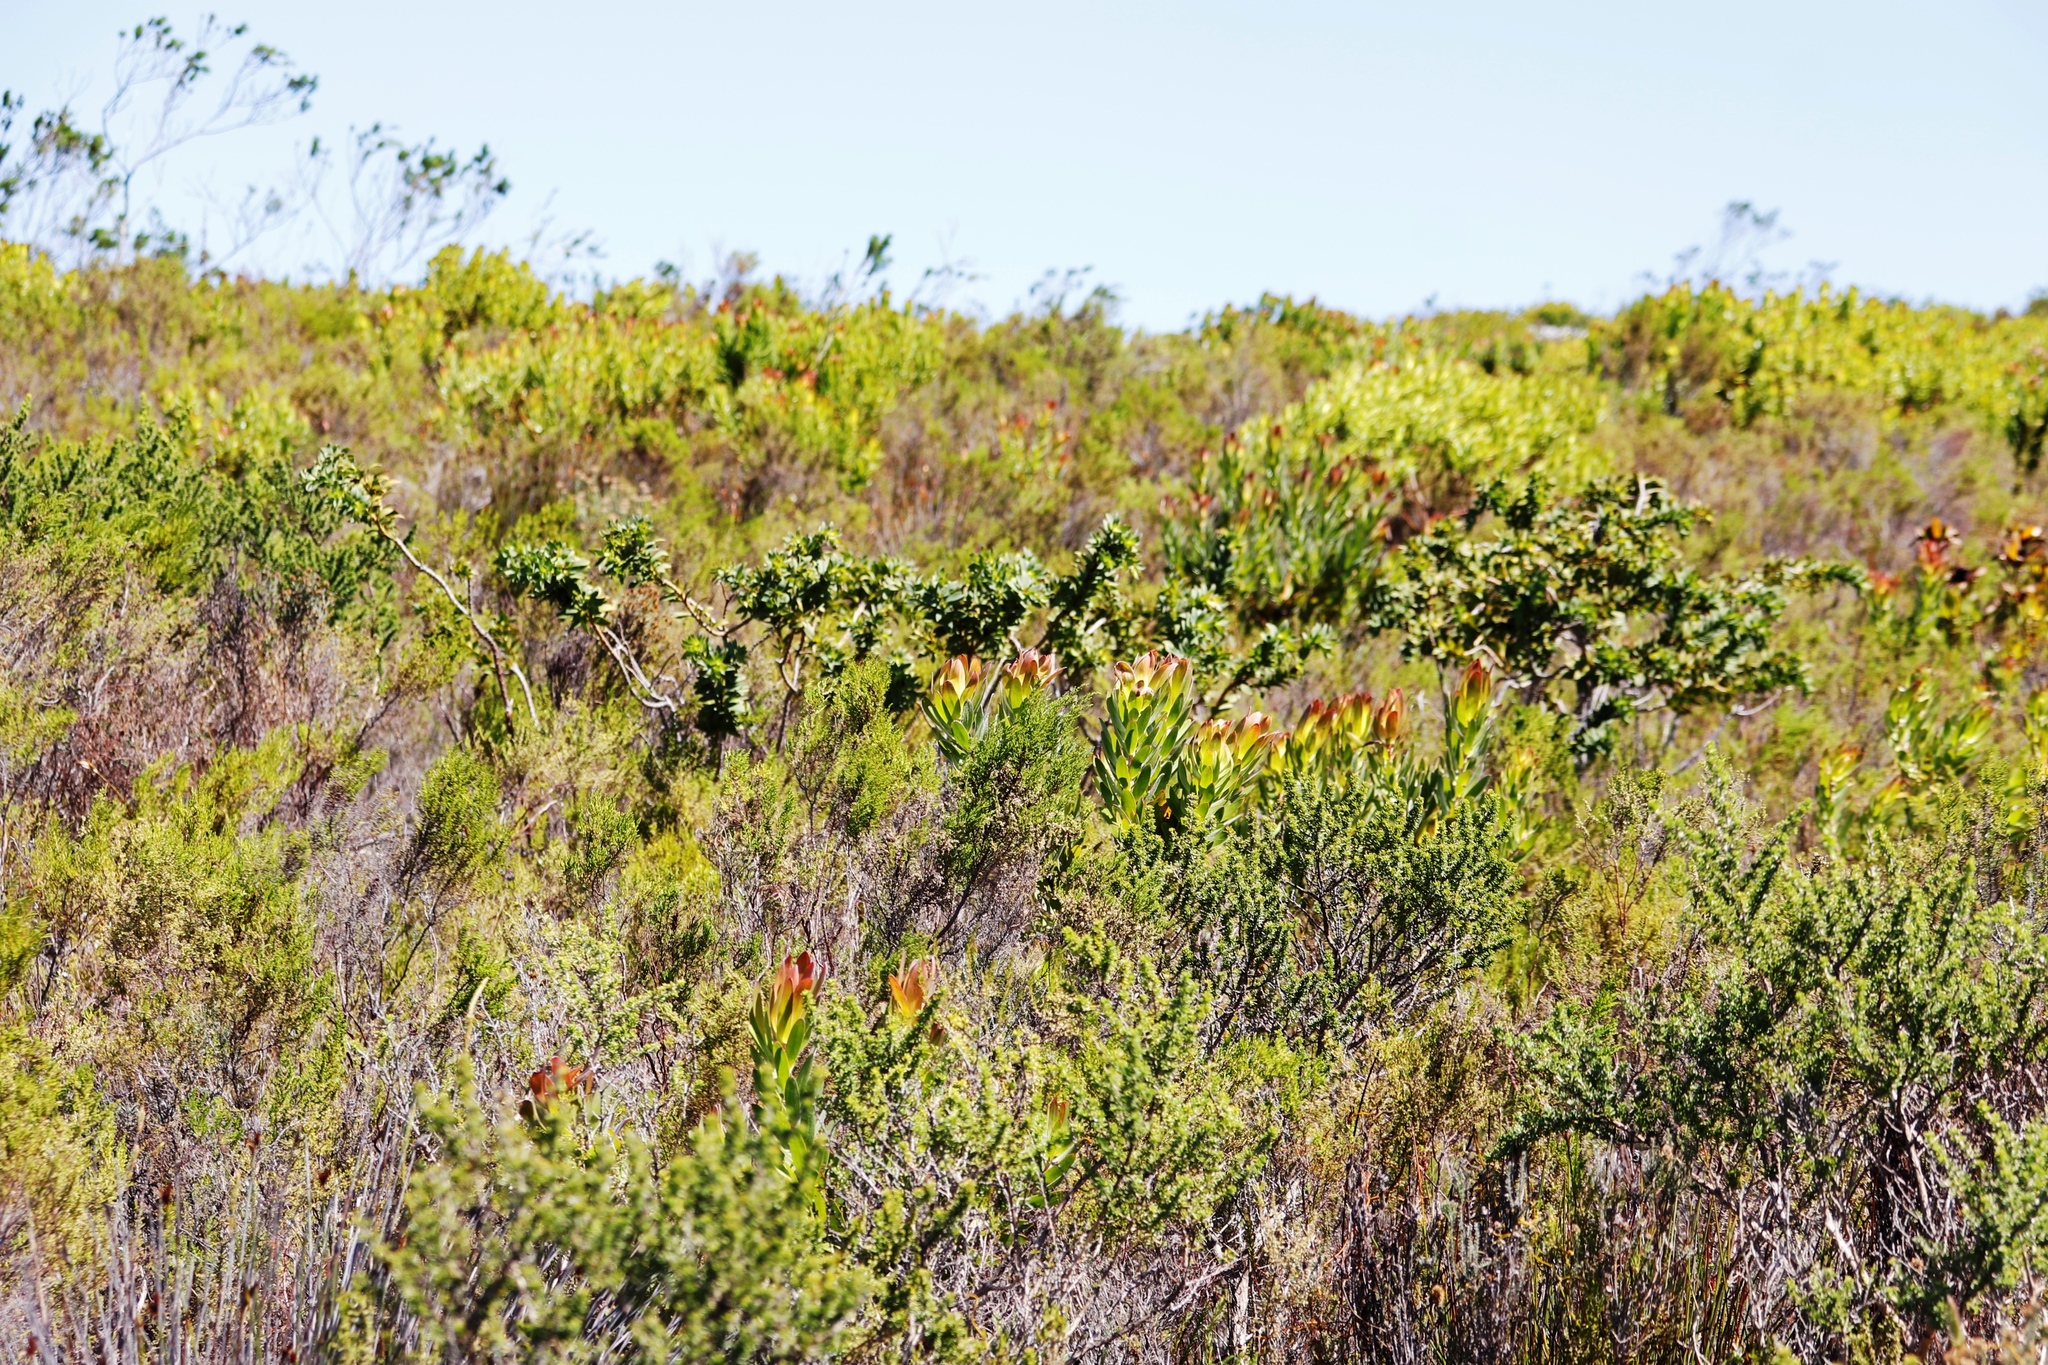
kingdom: Plantae
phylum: Tracheophyta
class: Magnoliopsida
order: Fabales
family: Fabaceae
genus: Liparia
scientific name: Liparia splendens
